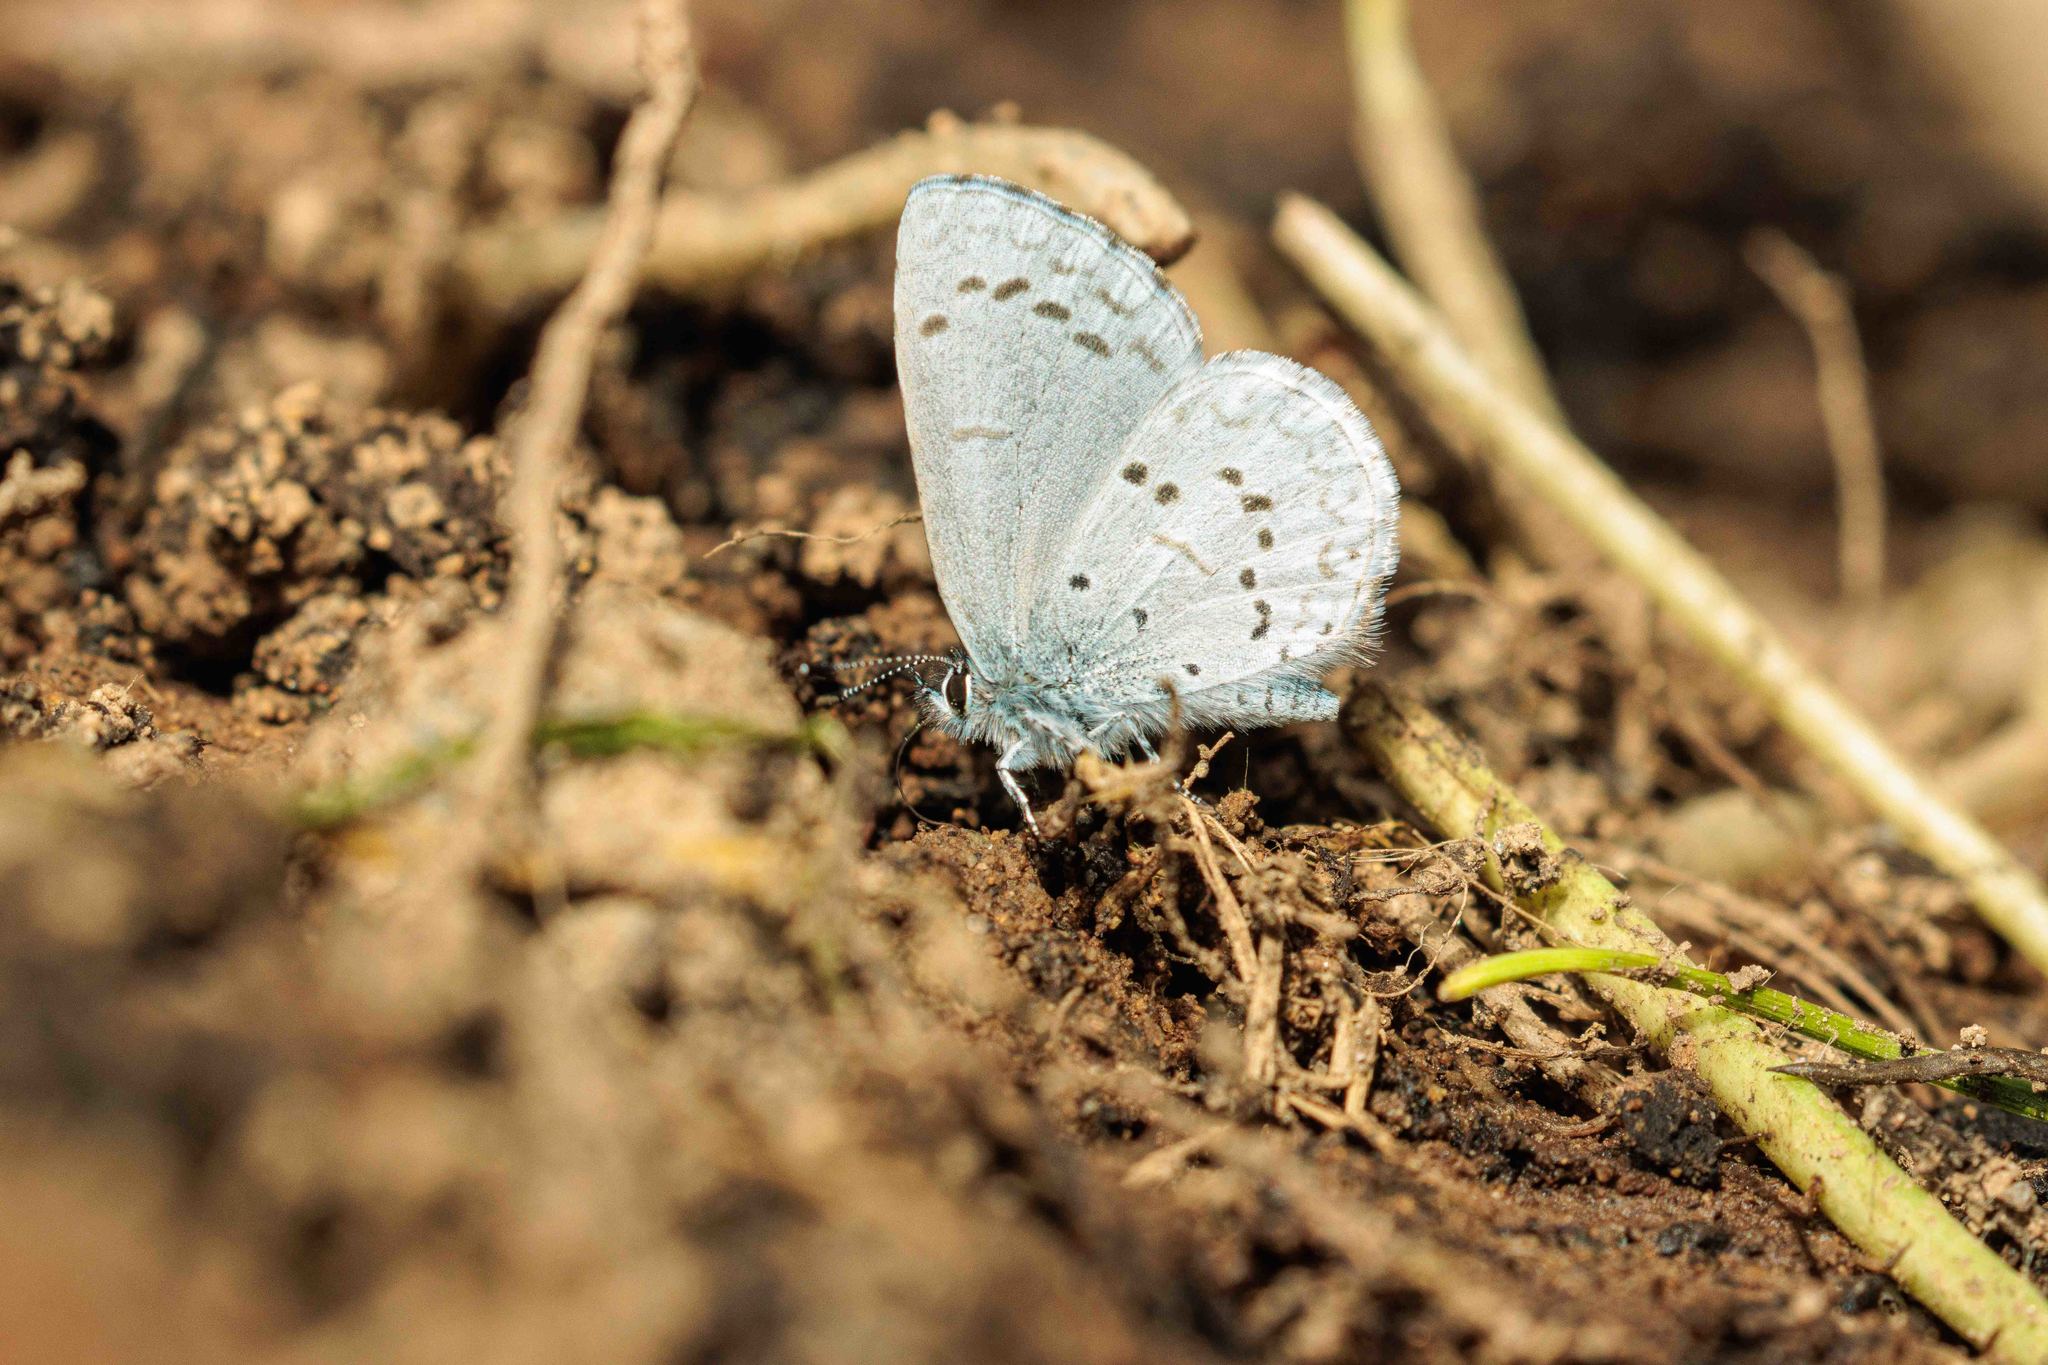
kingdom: Animalia
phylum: Arthropoda
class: Insecta
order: Lepidoptera
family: Lycaenidae
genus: Celastrina
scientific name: Celastrina ladon
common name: Spring azure
